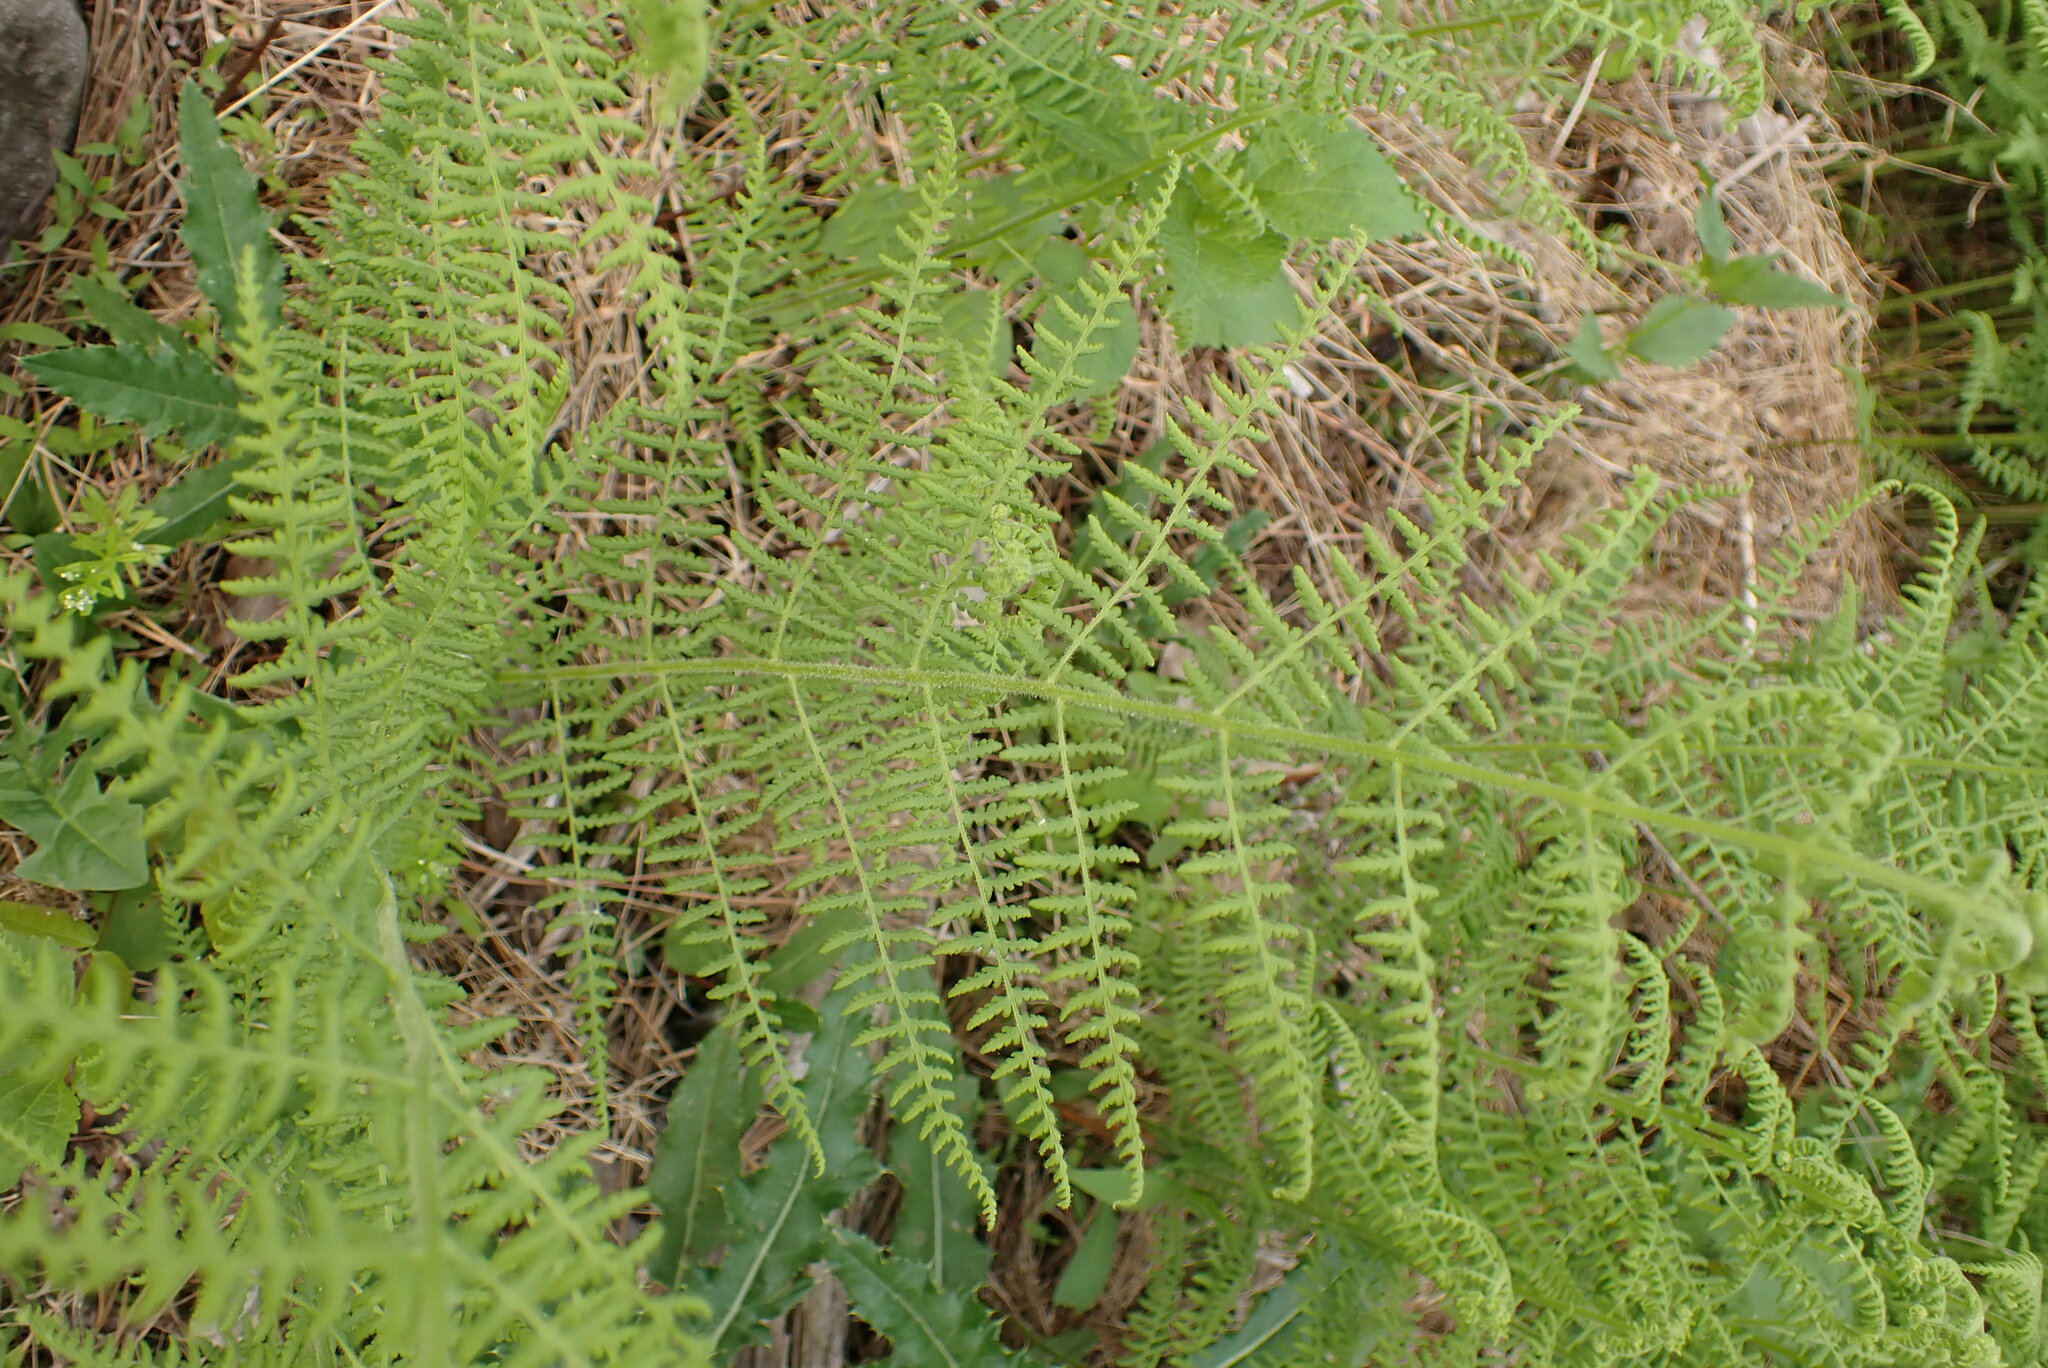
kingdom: Plantae
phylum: Tracheophyta
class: Polypodiopsida
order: Polypodiales
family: Dennstaedtiaceae
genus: Sitobolium
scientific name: Sitobolium punctilobum
